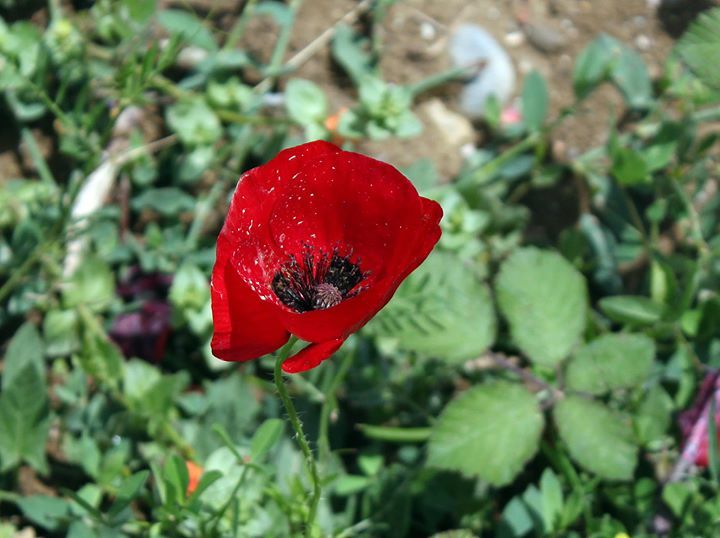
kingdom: Plantae
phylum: Tracheophyta
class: Magnoliopsida
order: Ranunculales
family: Papaveraceae
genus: Papaver
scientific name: Papaver rhoeas
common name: Corn poppy
